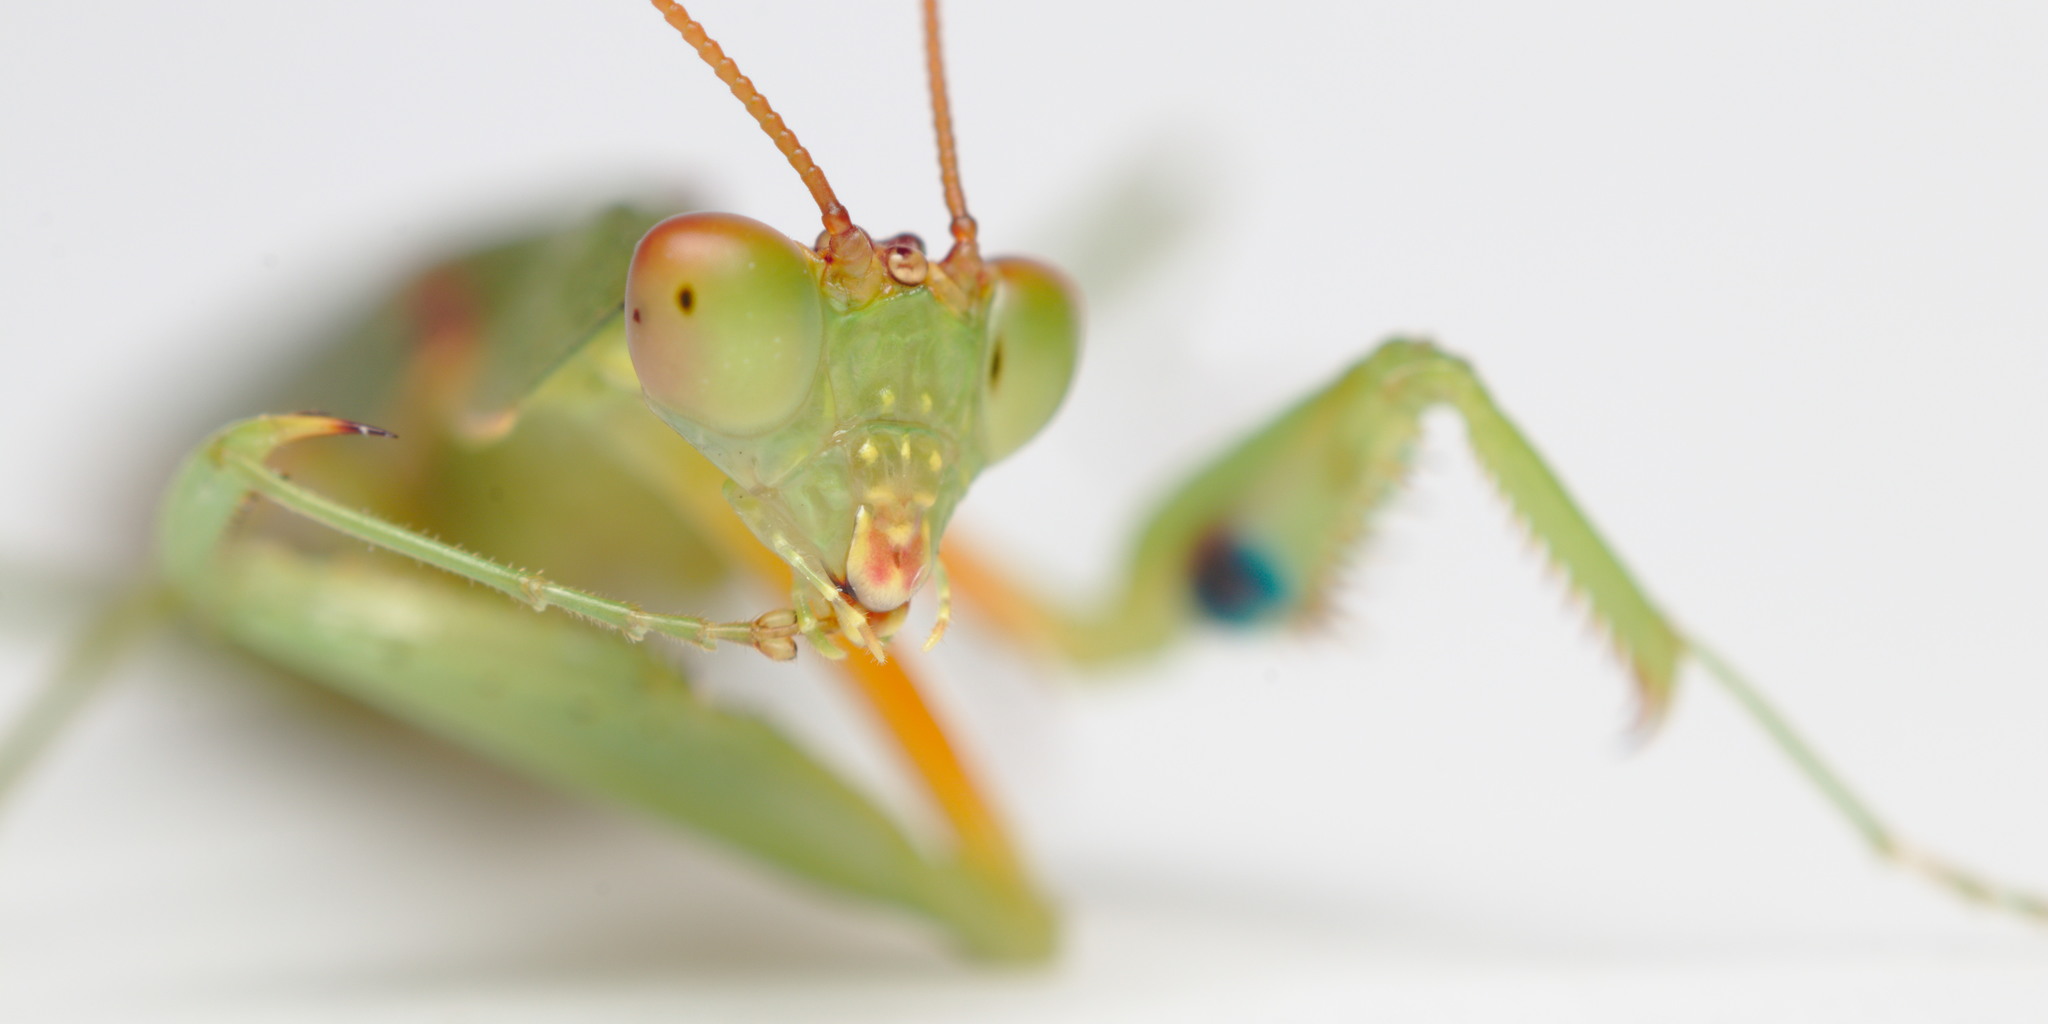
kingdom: Animalia
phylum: Arthropoda
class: Insecta
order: Mantodea
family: Mantidae
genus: Orthodera
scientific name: Orthodera novaezealandiae
